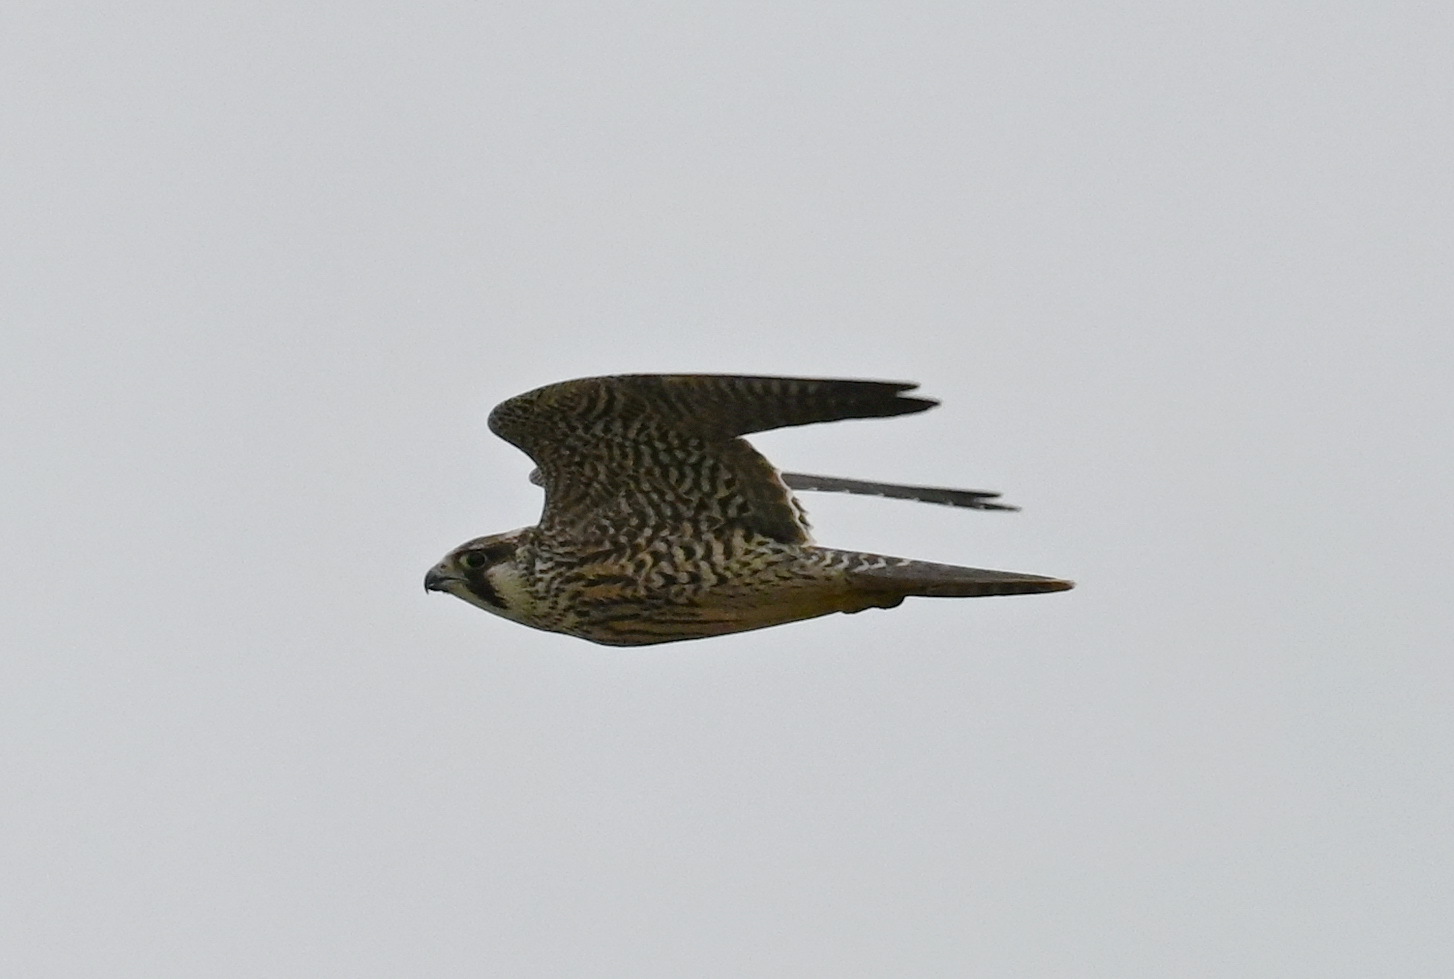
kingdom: Animalia
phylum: Chordata
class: Aves
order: Falconiformes
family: Falconidae
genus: Falco
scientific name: Falco peregrinus
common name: Peregrine falcon
